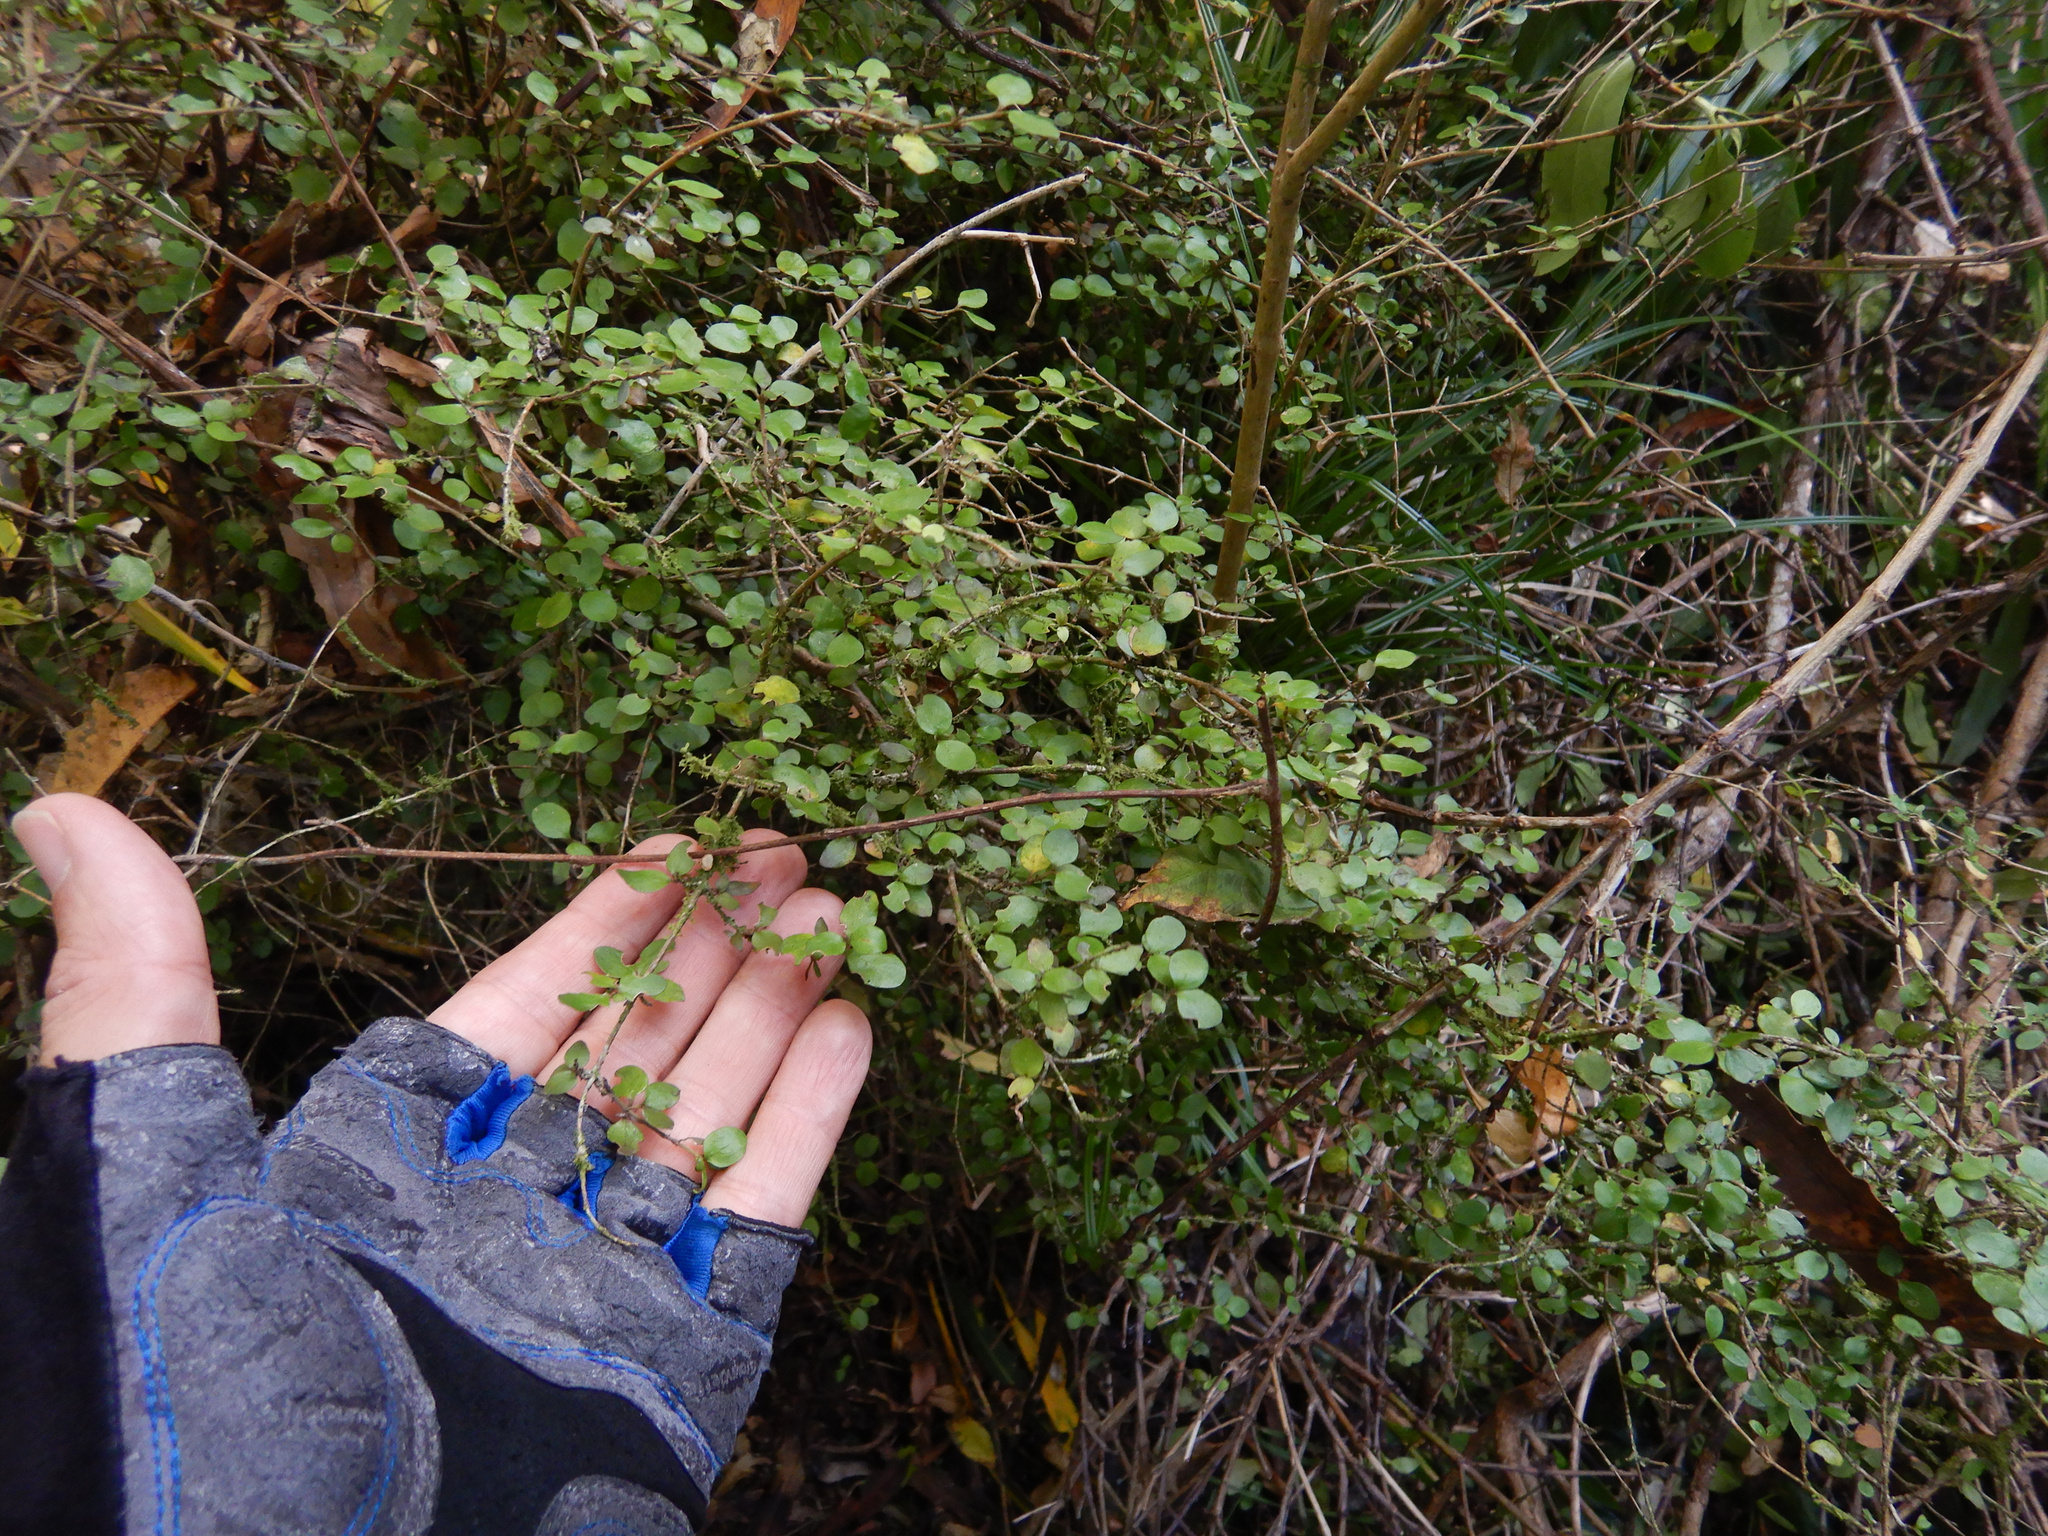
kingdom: Plantae
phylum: Tracheophyta
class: Magnoliopsida
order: Gentianales
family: Rubiaceae
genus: Coprosma
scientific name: Coprosma crassifolia
